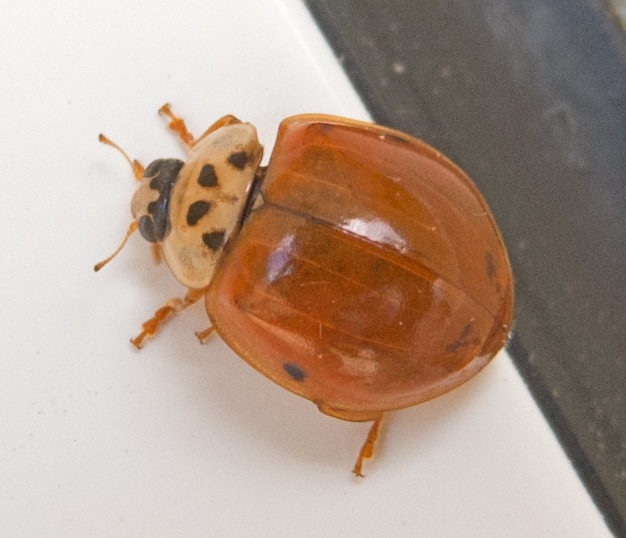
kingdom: Animalia
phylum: Arthropoda
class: Insecta
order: Coleoptera
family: Coccinellidae
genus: Harmonia
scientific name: Harmonia axyridis
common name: Harlequin ladybird
